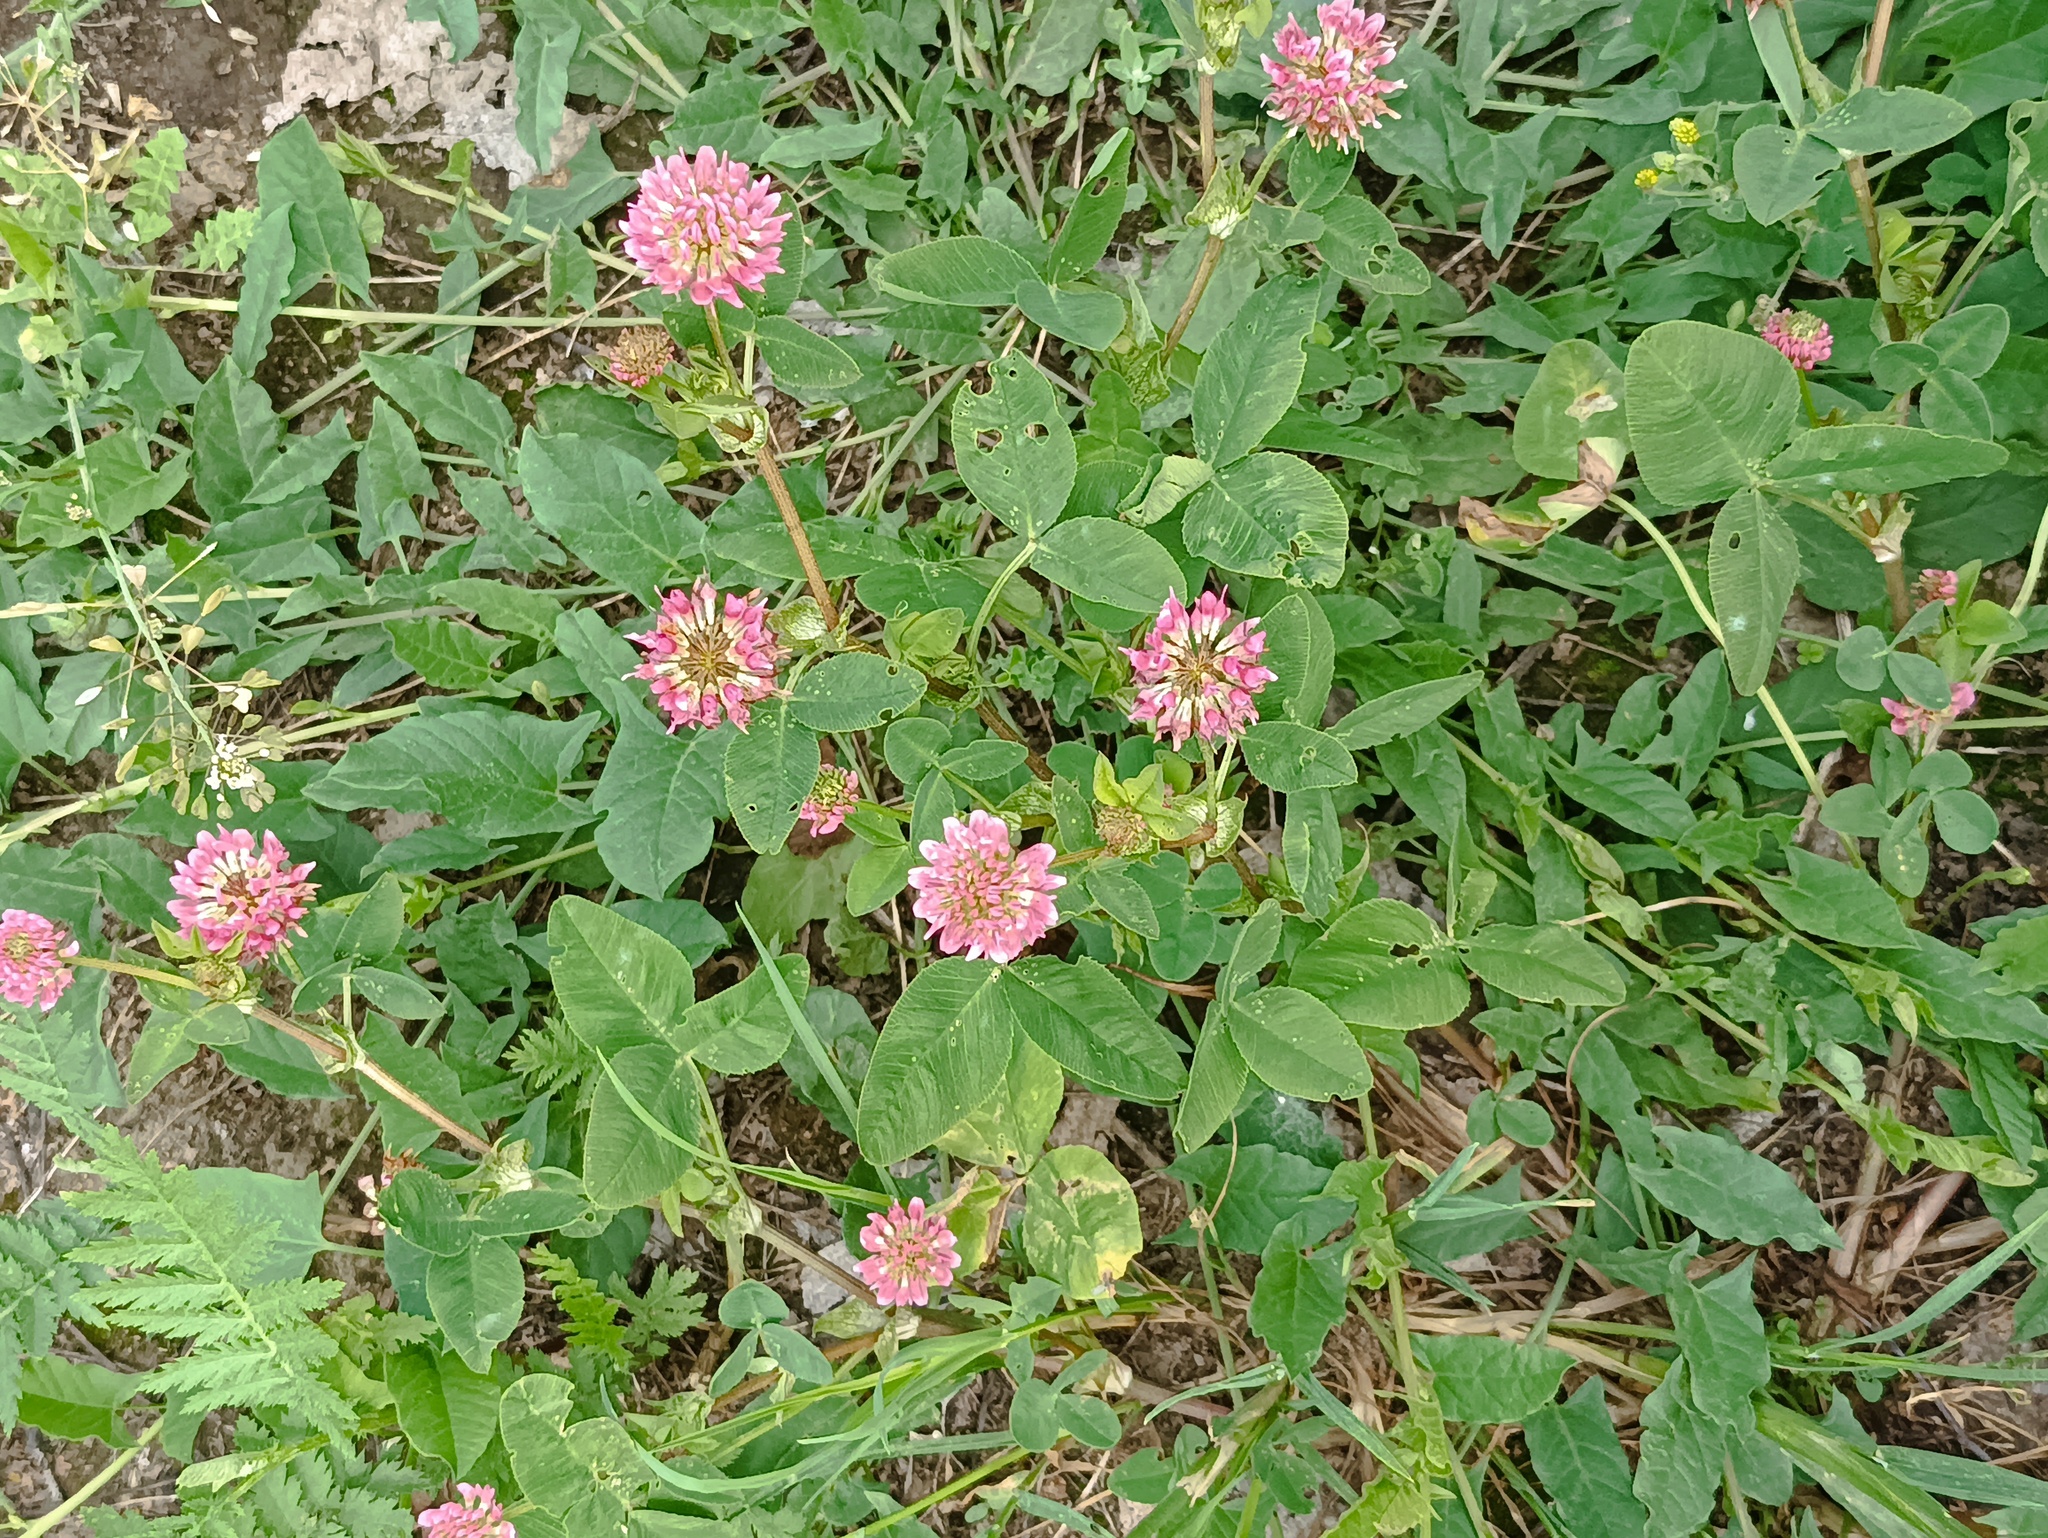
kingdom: Plantae
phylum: Tracheophyta
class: Magnoliopsida
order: Fabales
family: Fabaceae
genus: Trifolium
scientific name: Trifolium hybridum
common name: Alsike clover
